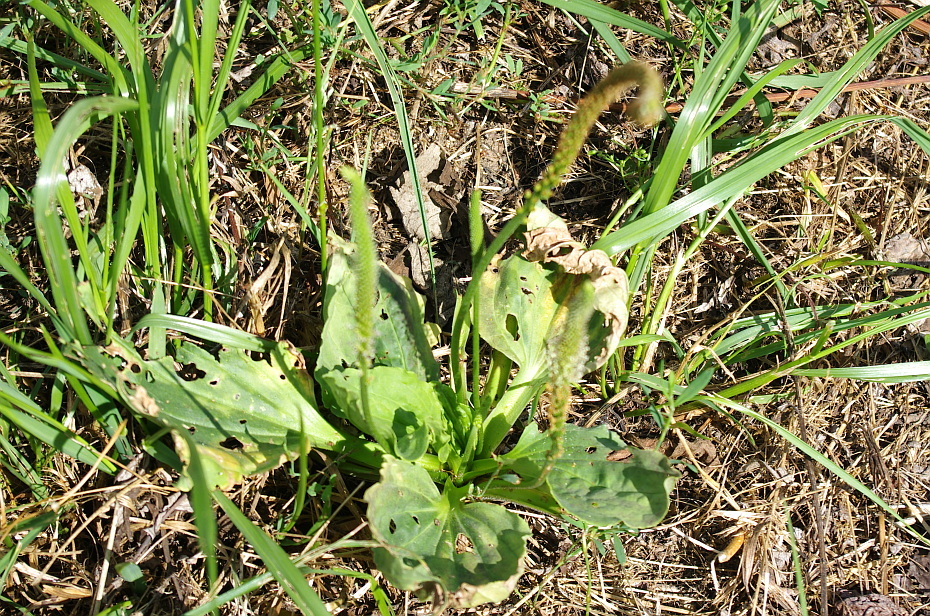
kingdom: Plantae
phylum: Tracheophyta
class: Magnoliopsida
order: Lamiales
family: Plantaginaceae
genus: Plantago
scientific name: Plantago major
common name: Common plantain
